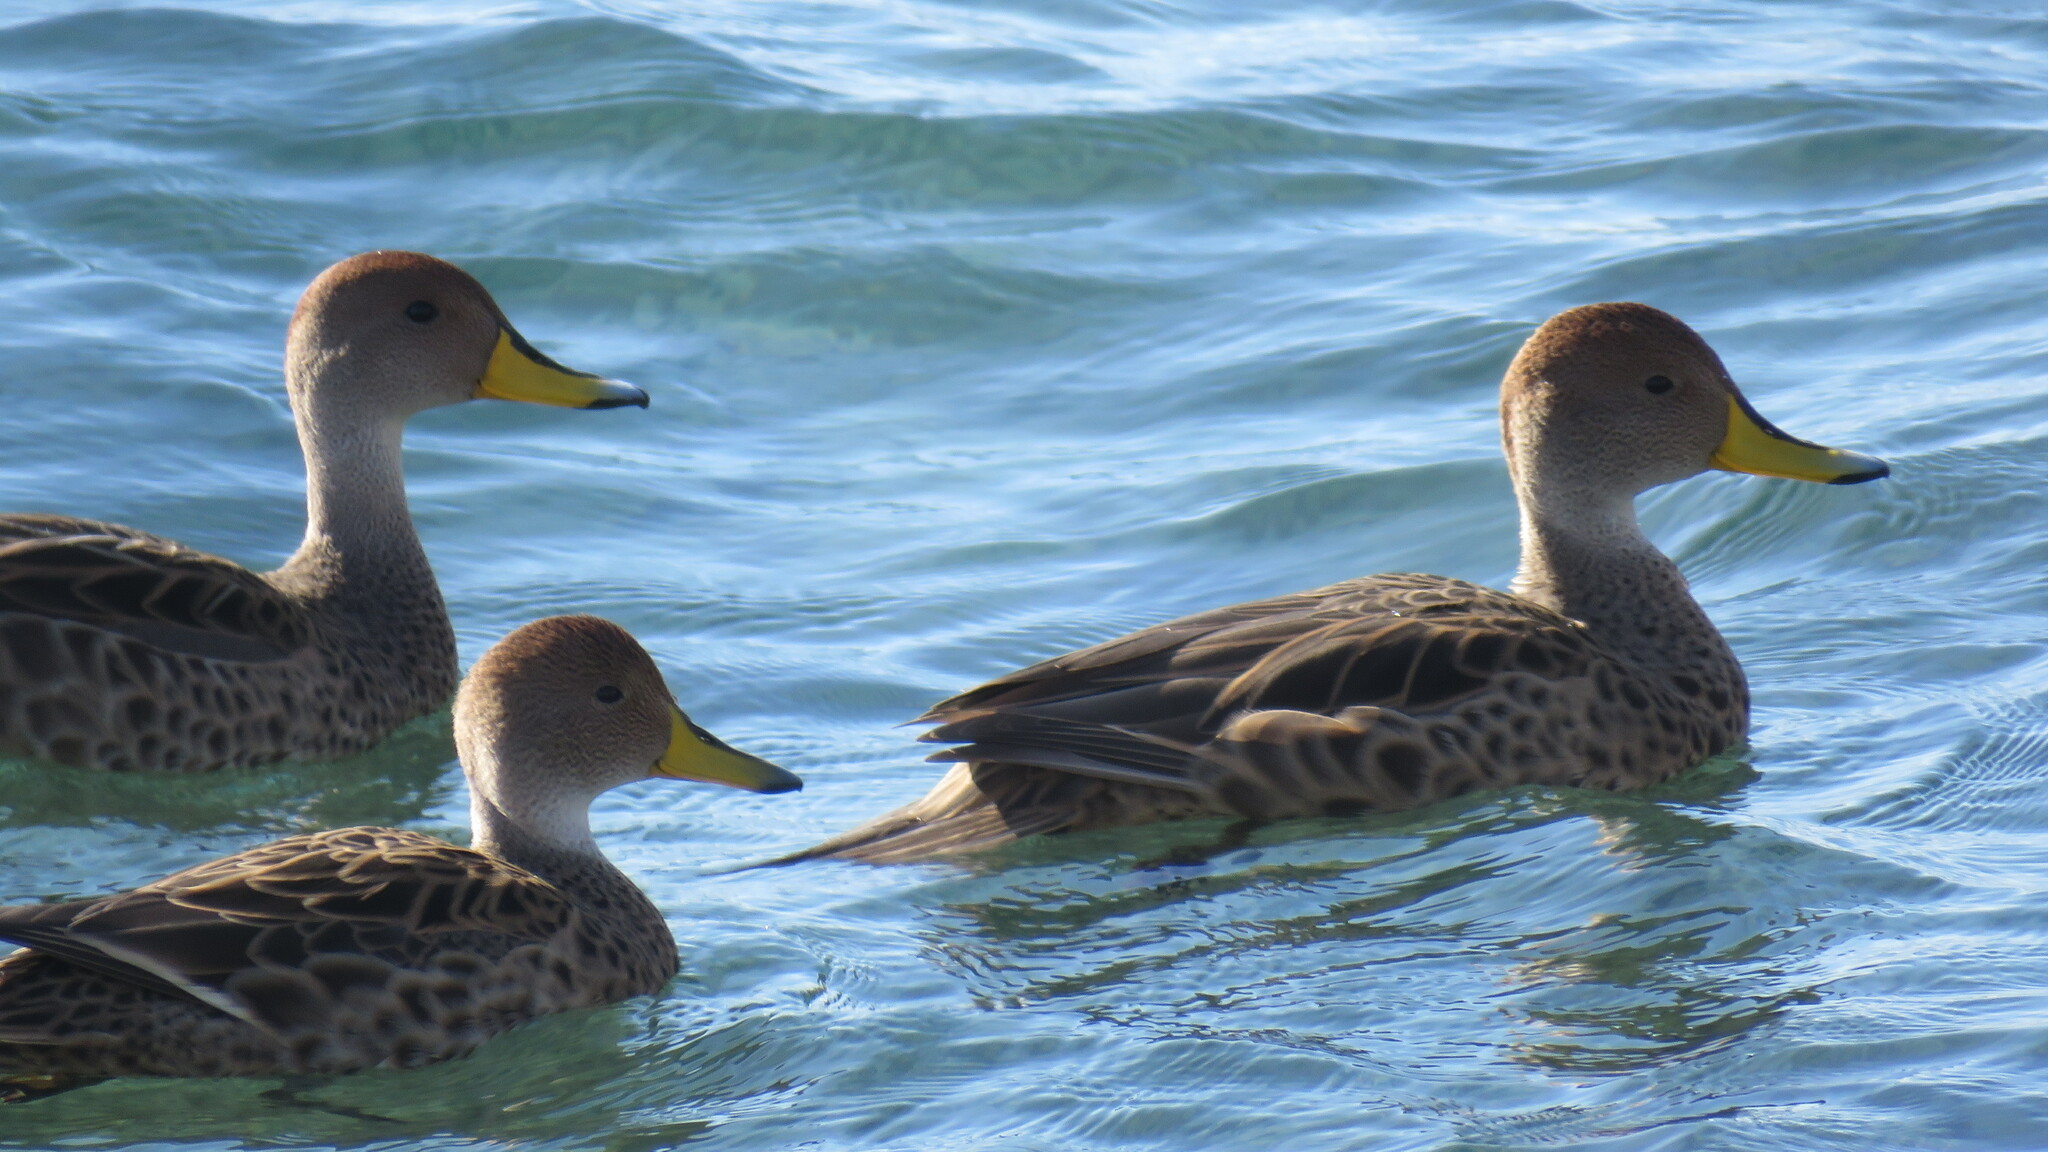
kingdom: Animalia
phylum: Chordata
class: Aves
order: Anseriformes
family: Anatidae
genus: Anas
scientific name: Anas georgica
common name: Yellow-billed pintail
